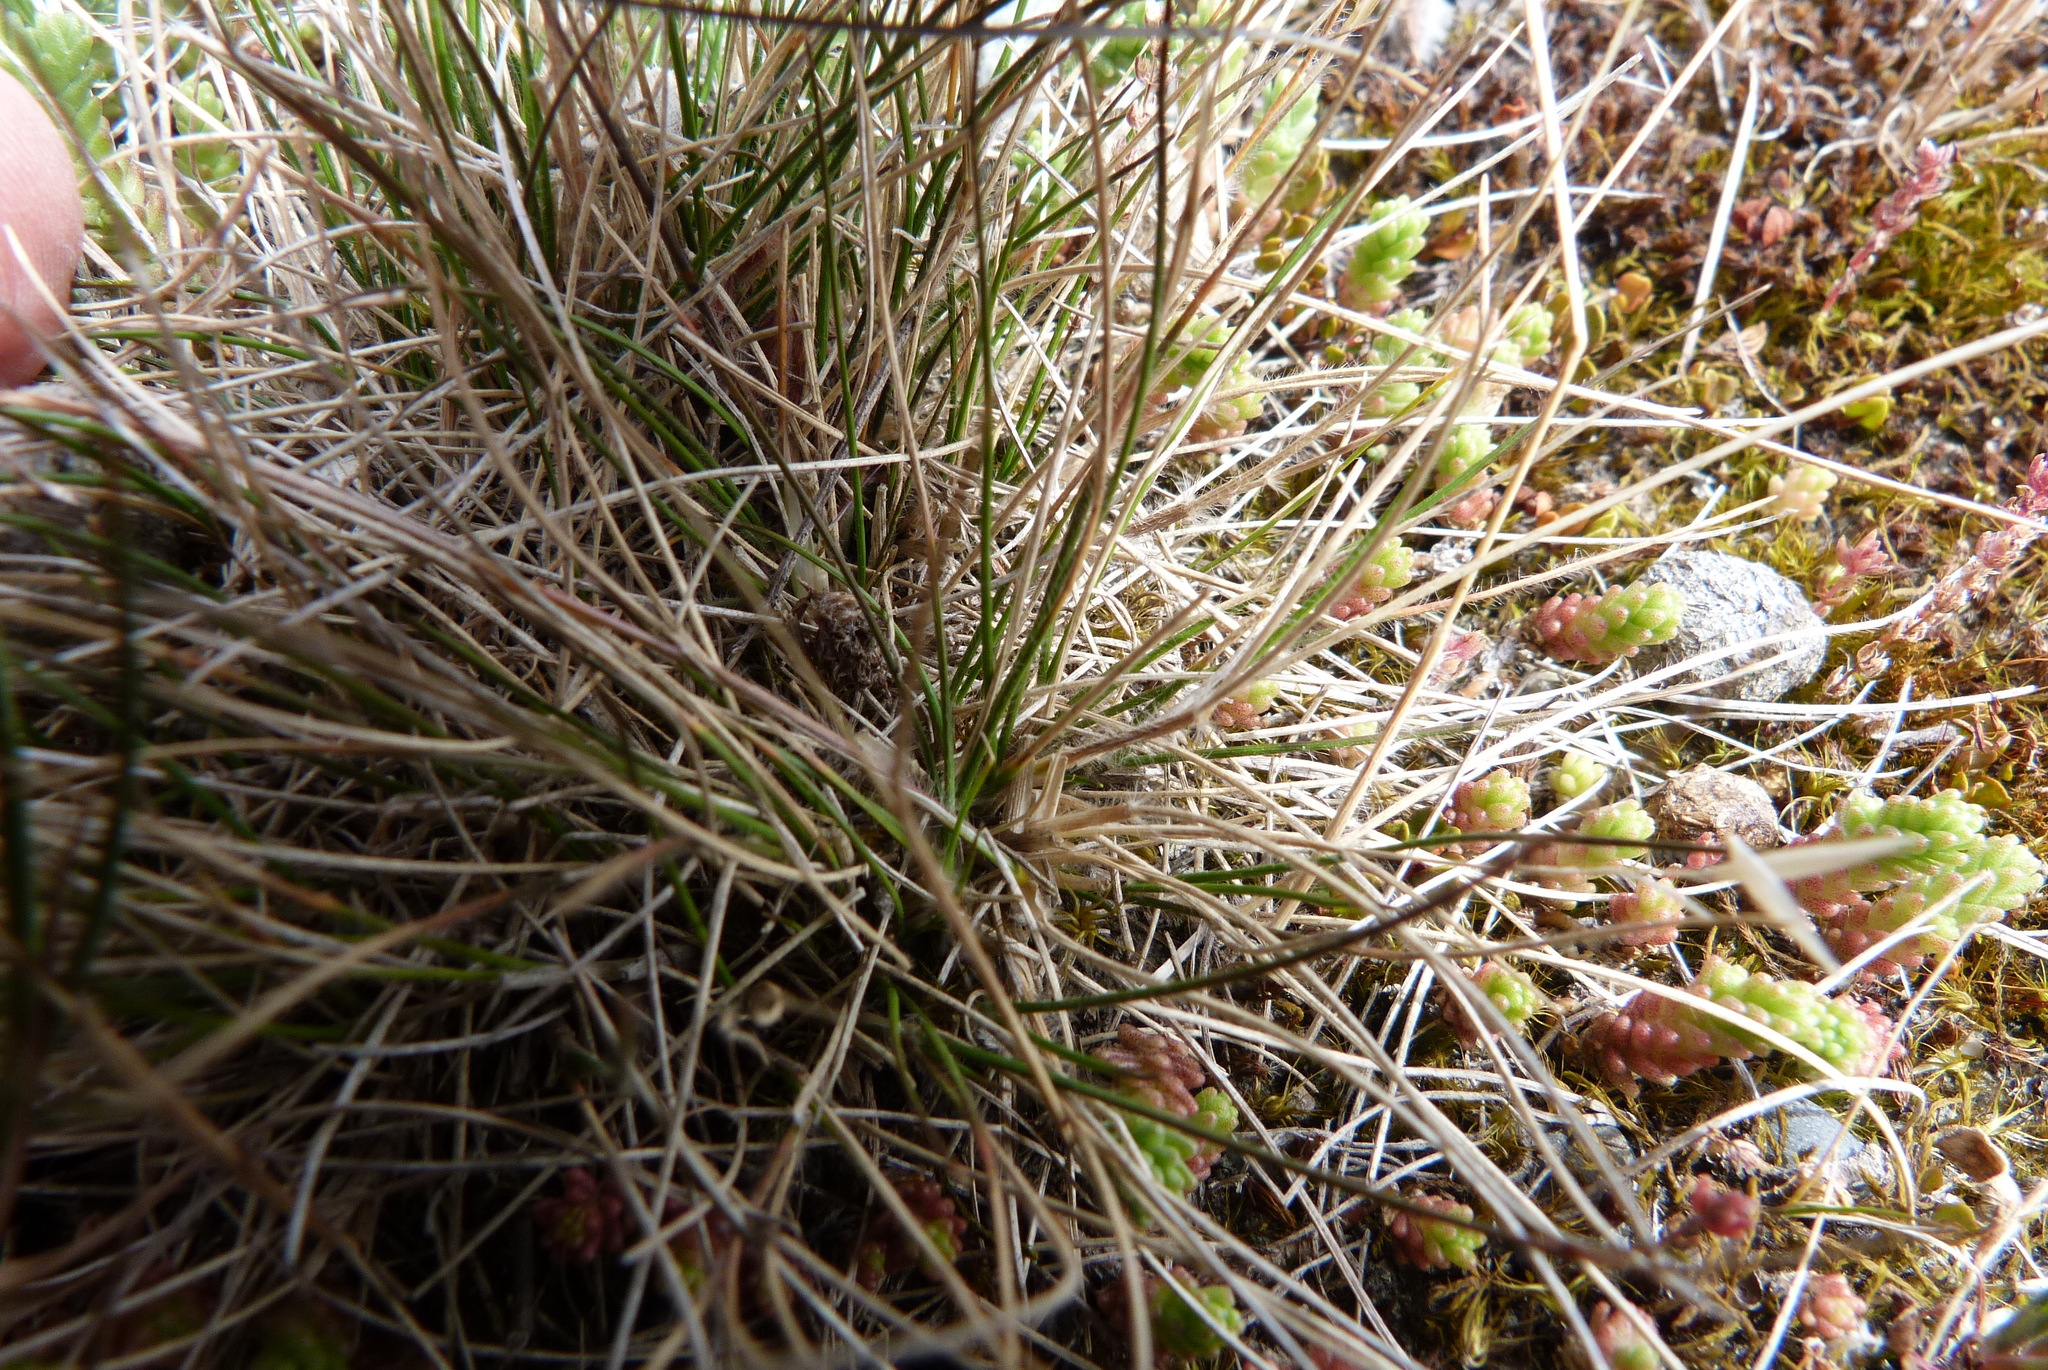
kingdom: Plantae
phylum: Tracheophyta
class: Liliopsida
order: Poales
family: Poaceae
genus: Rytidosperma
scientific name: Rytidosperma racemosum
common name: Wallaby-grass
